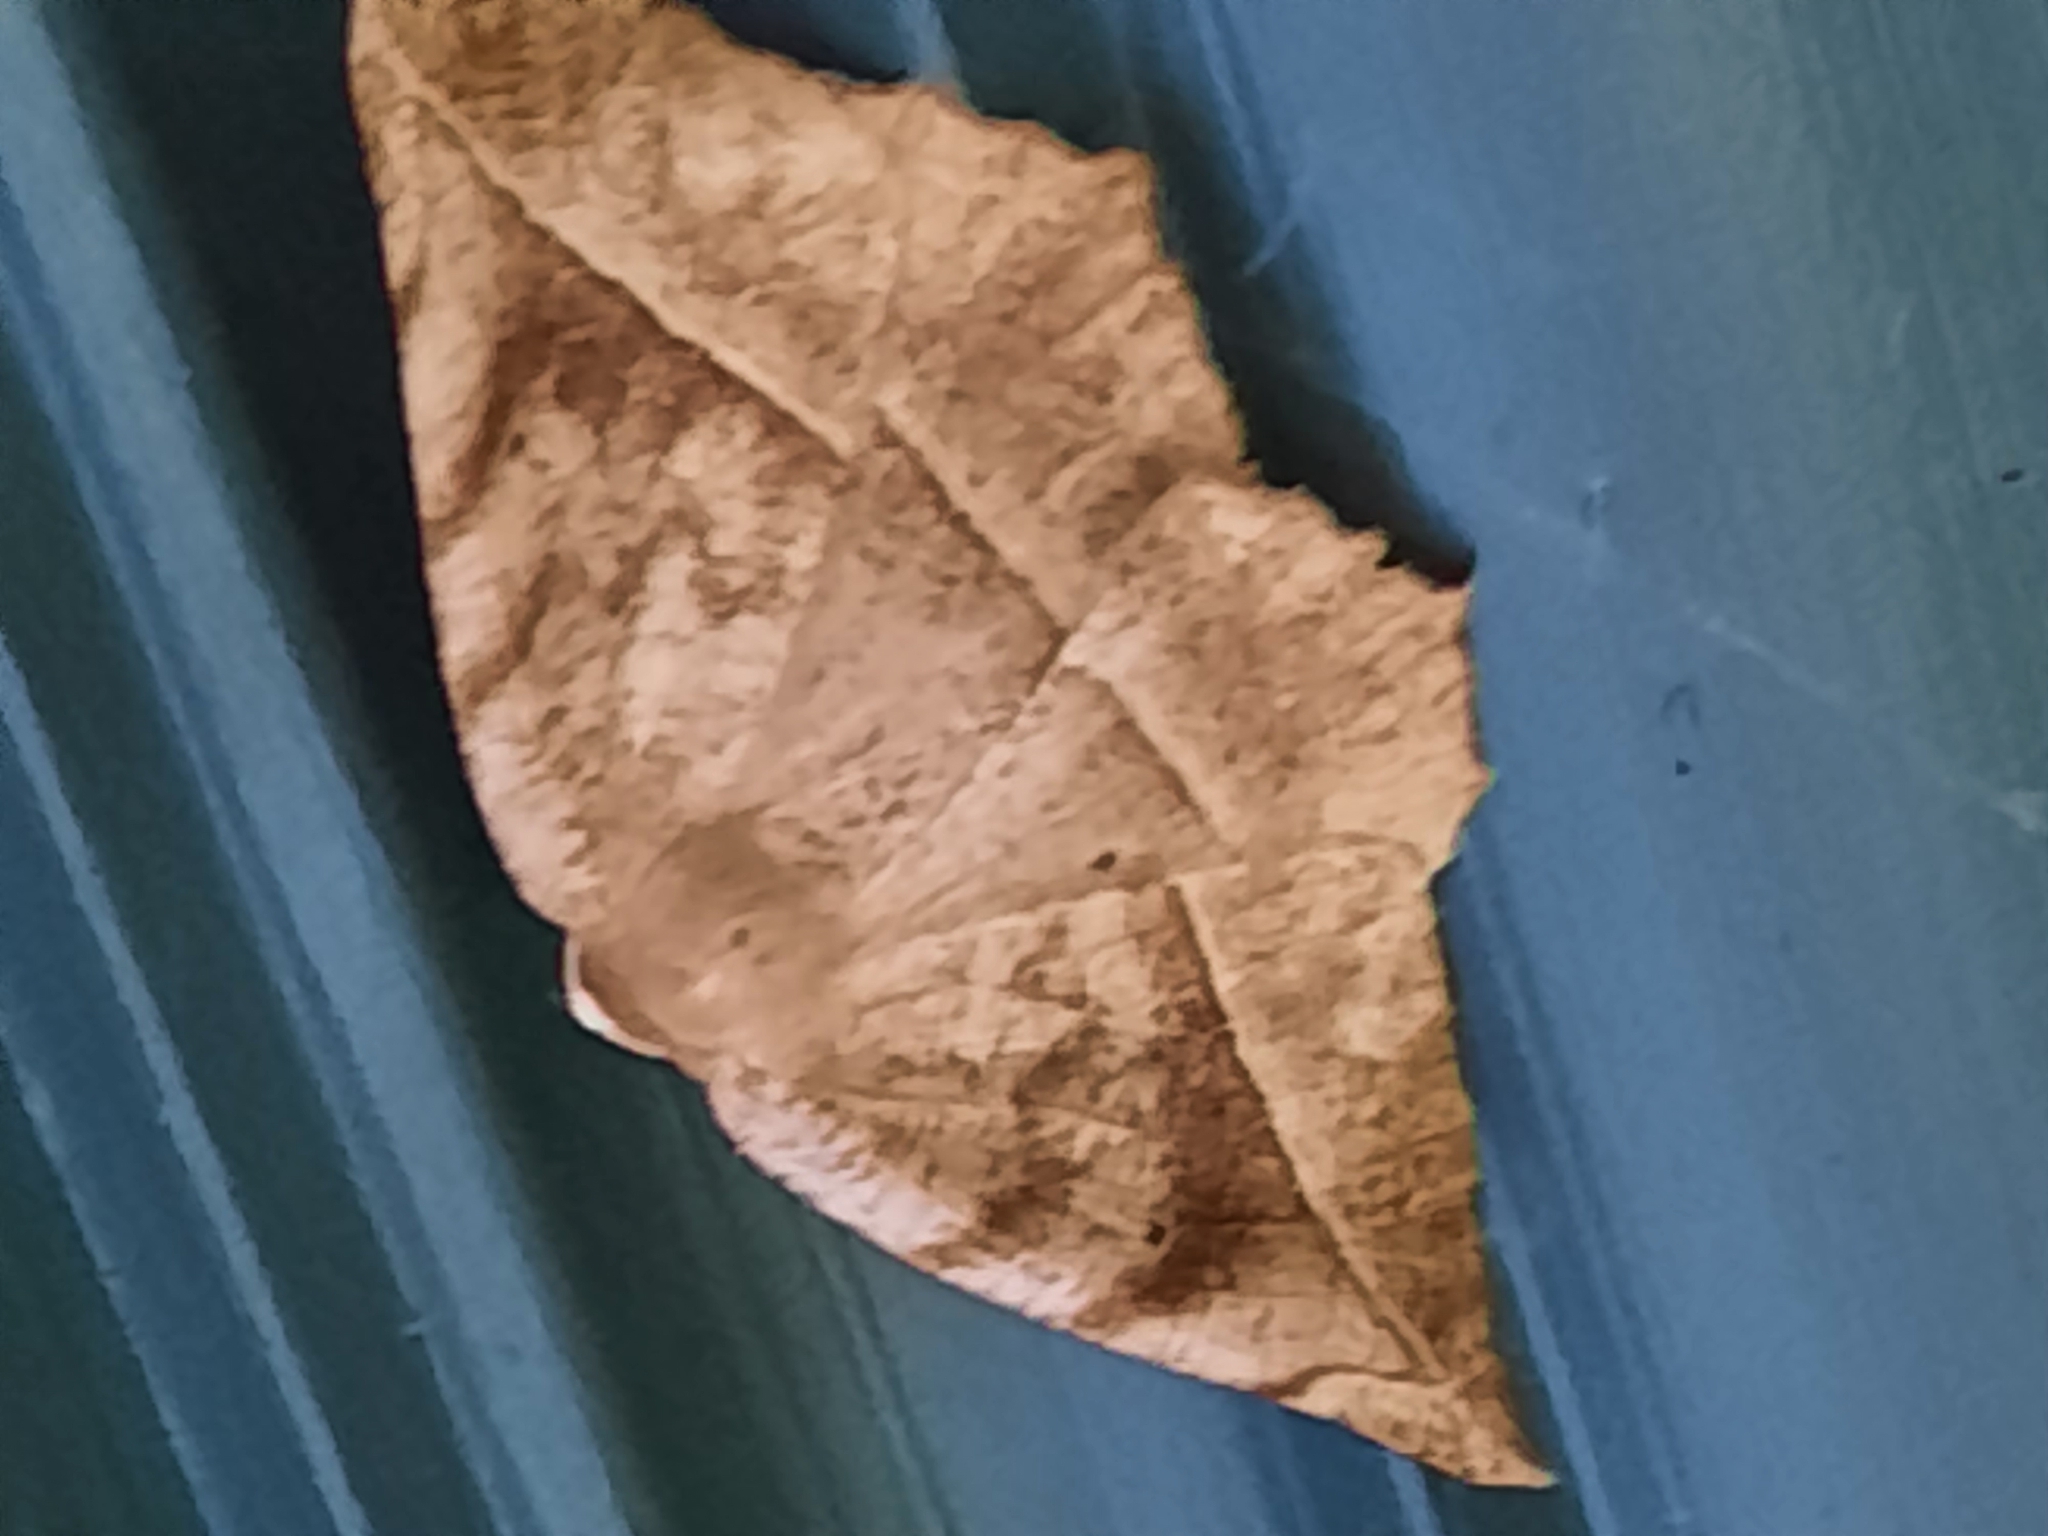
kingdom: Animalia
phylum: Arthropoda
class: Insecta
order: Lepidoptera
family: Geometridae
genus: Eutrapela
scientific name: Eutrapela clemataria
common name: Curved-toothed geometer
